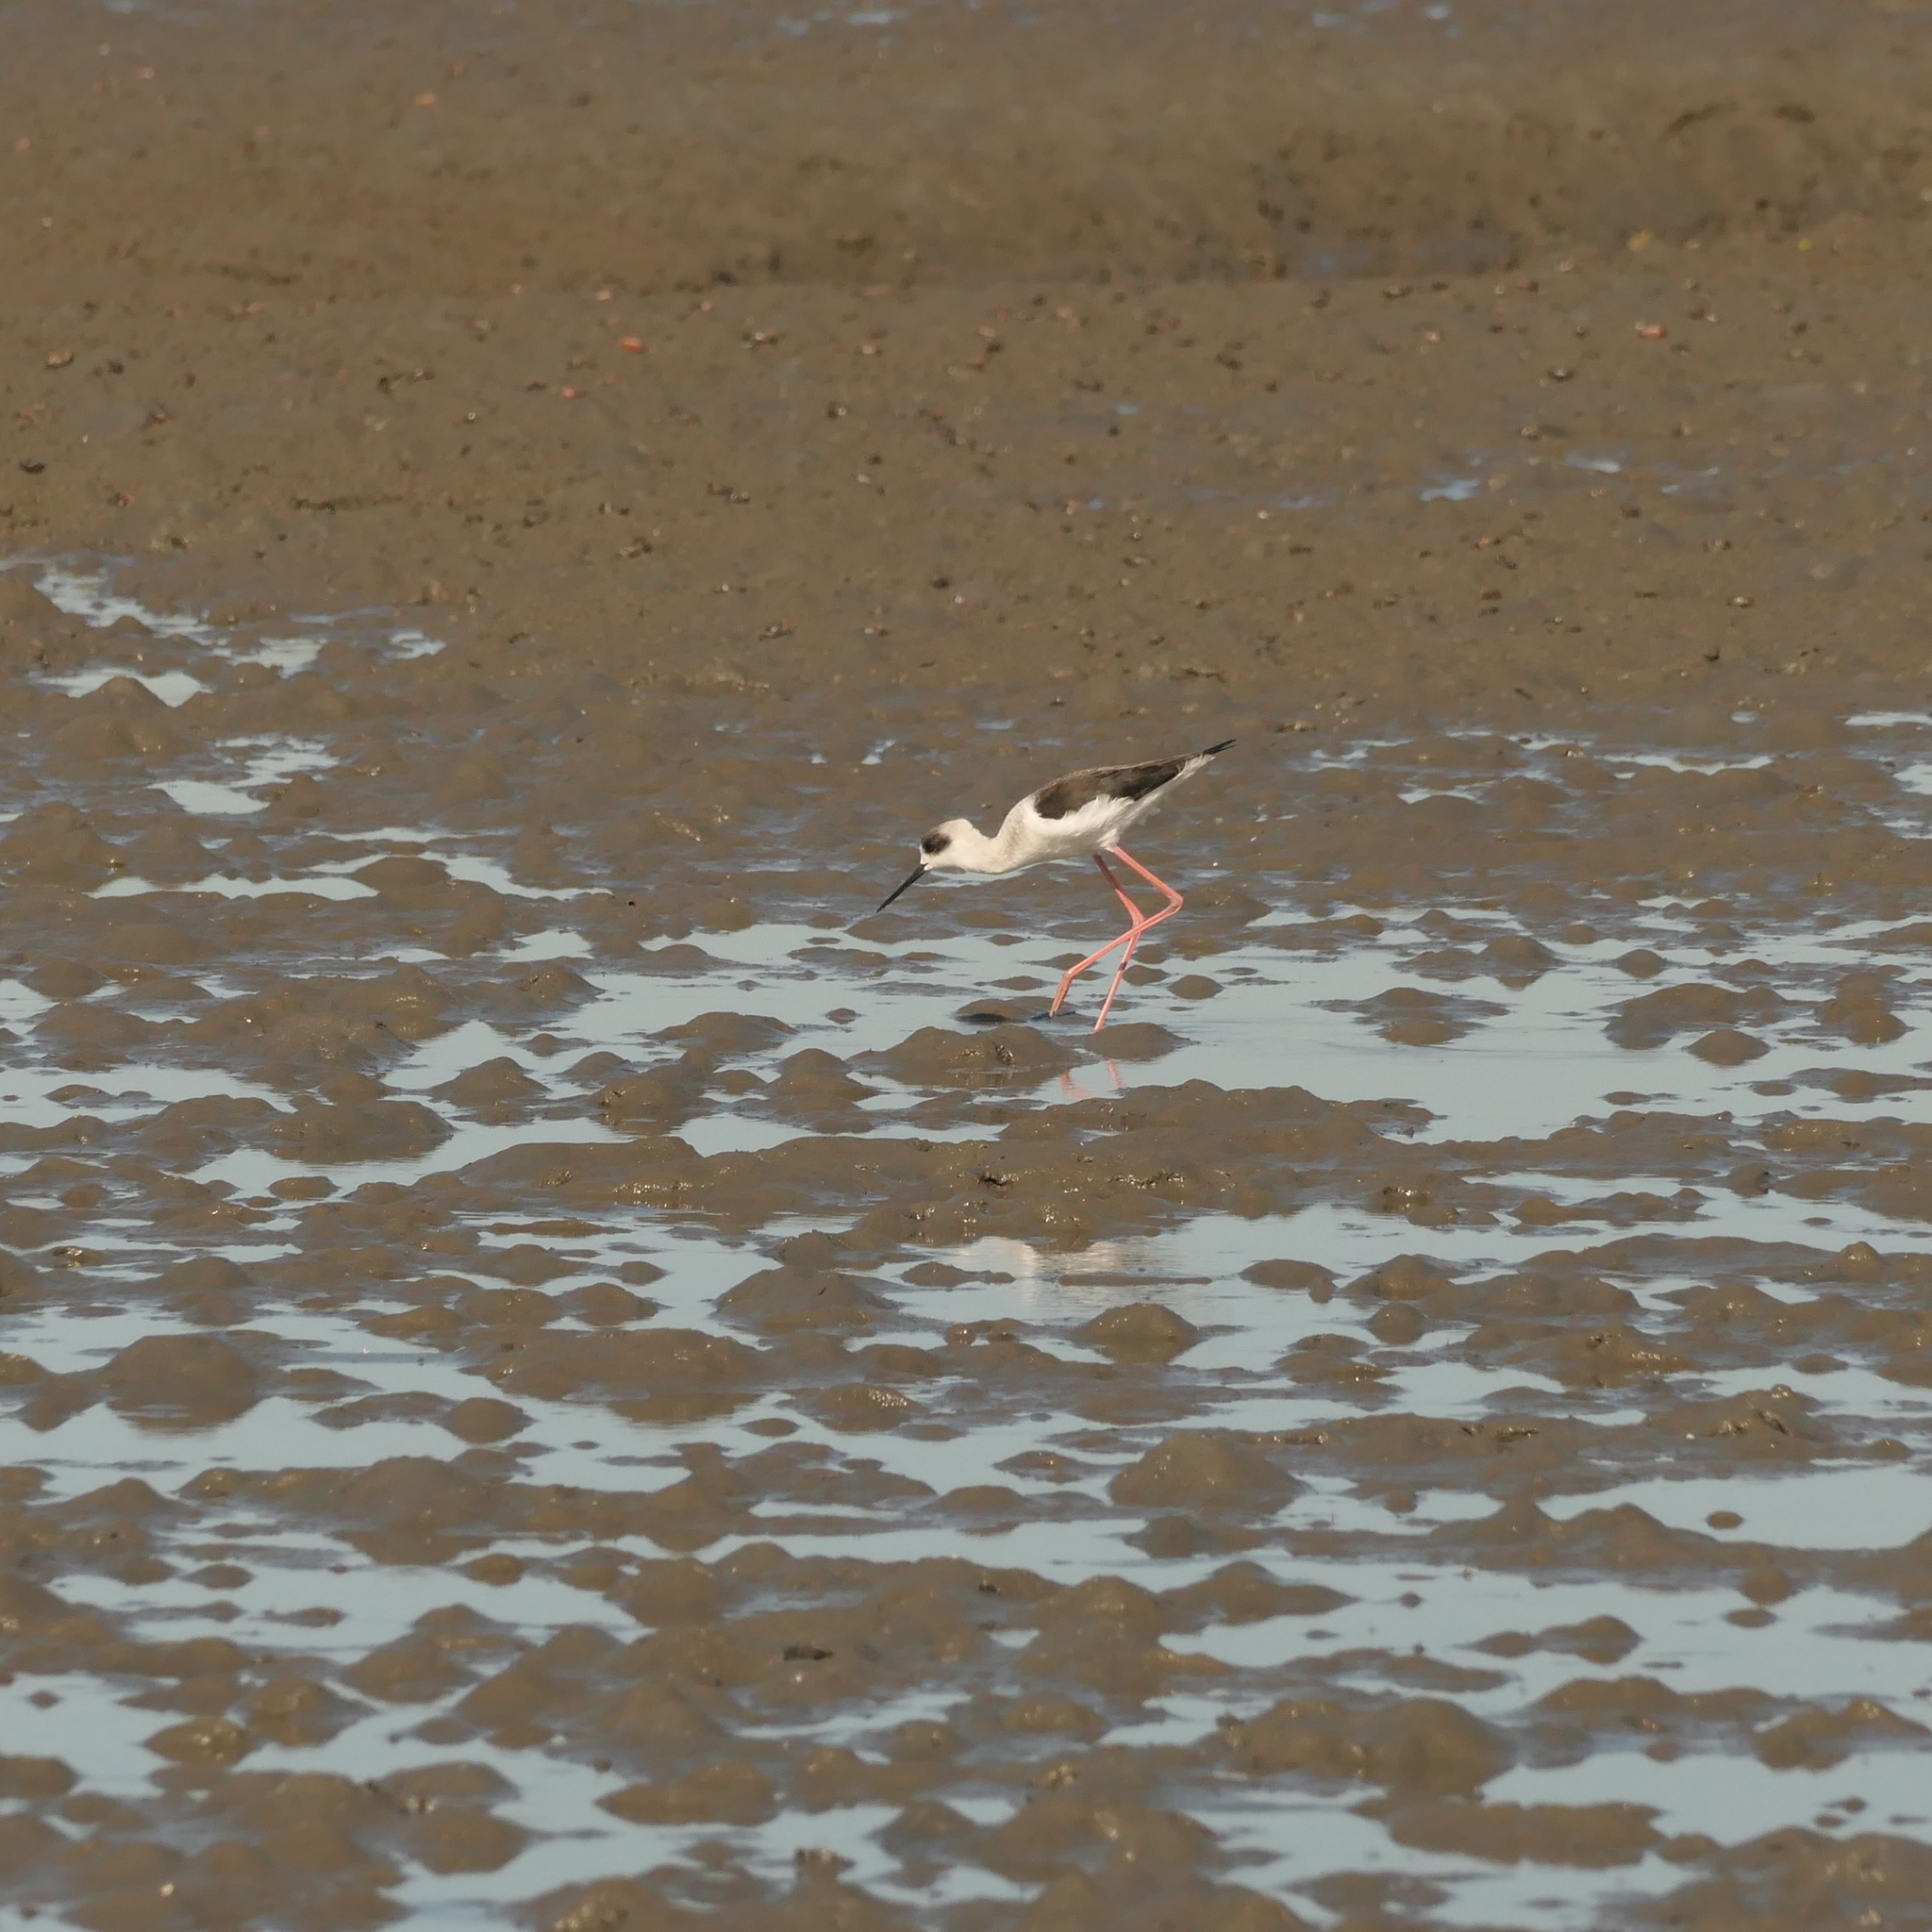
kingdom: Animalia
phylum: Chordata
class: Aves
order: Charadriiformes
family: Recurvirostridae
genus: Himantopus
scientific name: Himantopus leucocephalus
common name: White-headed stilt
